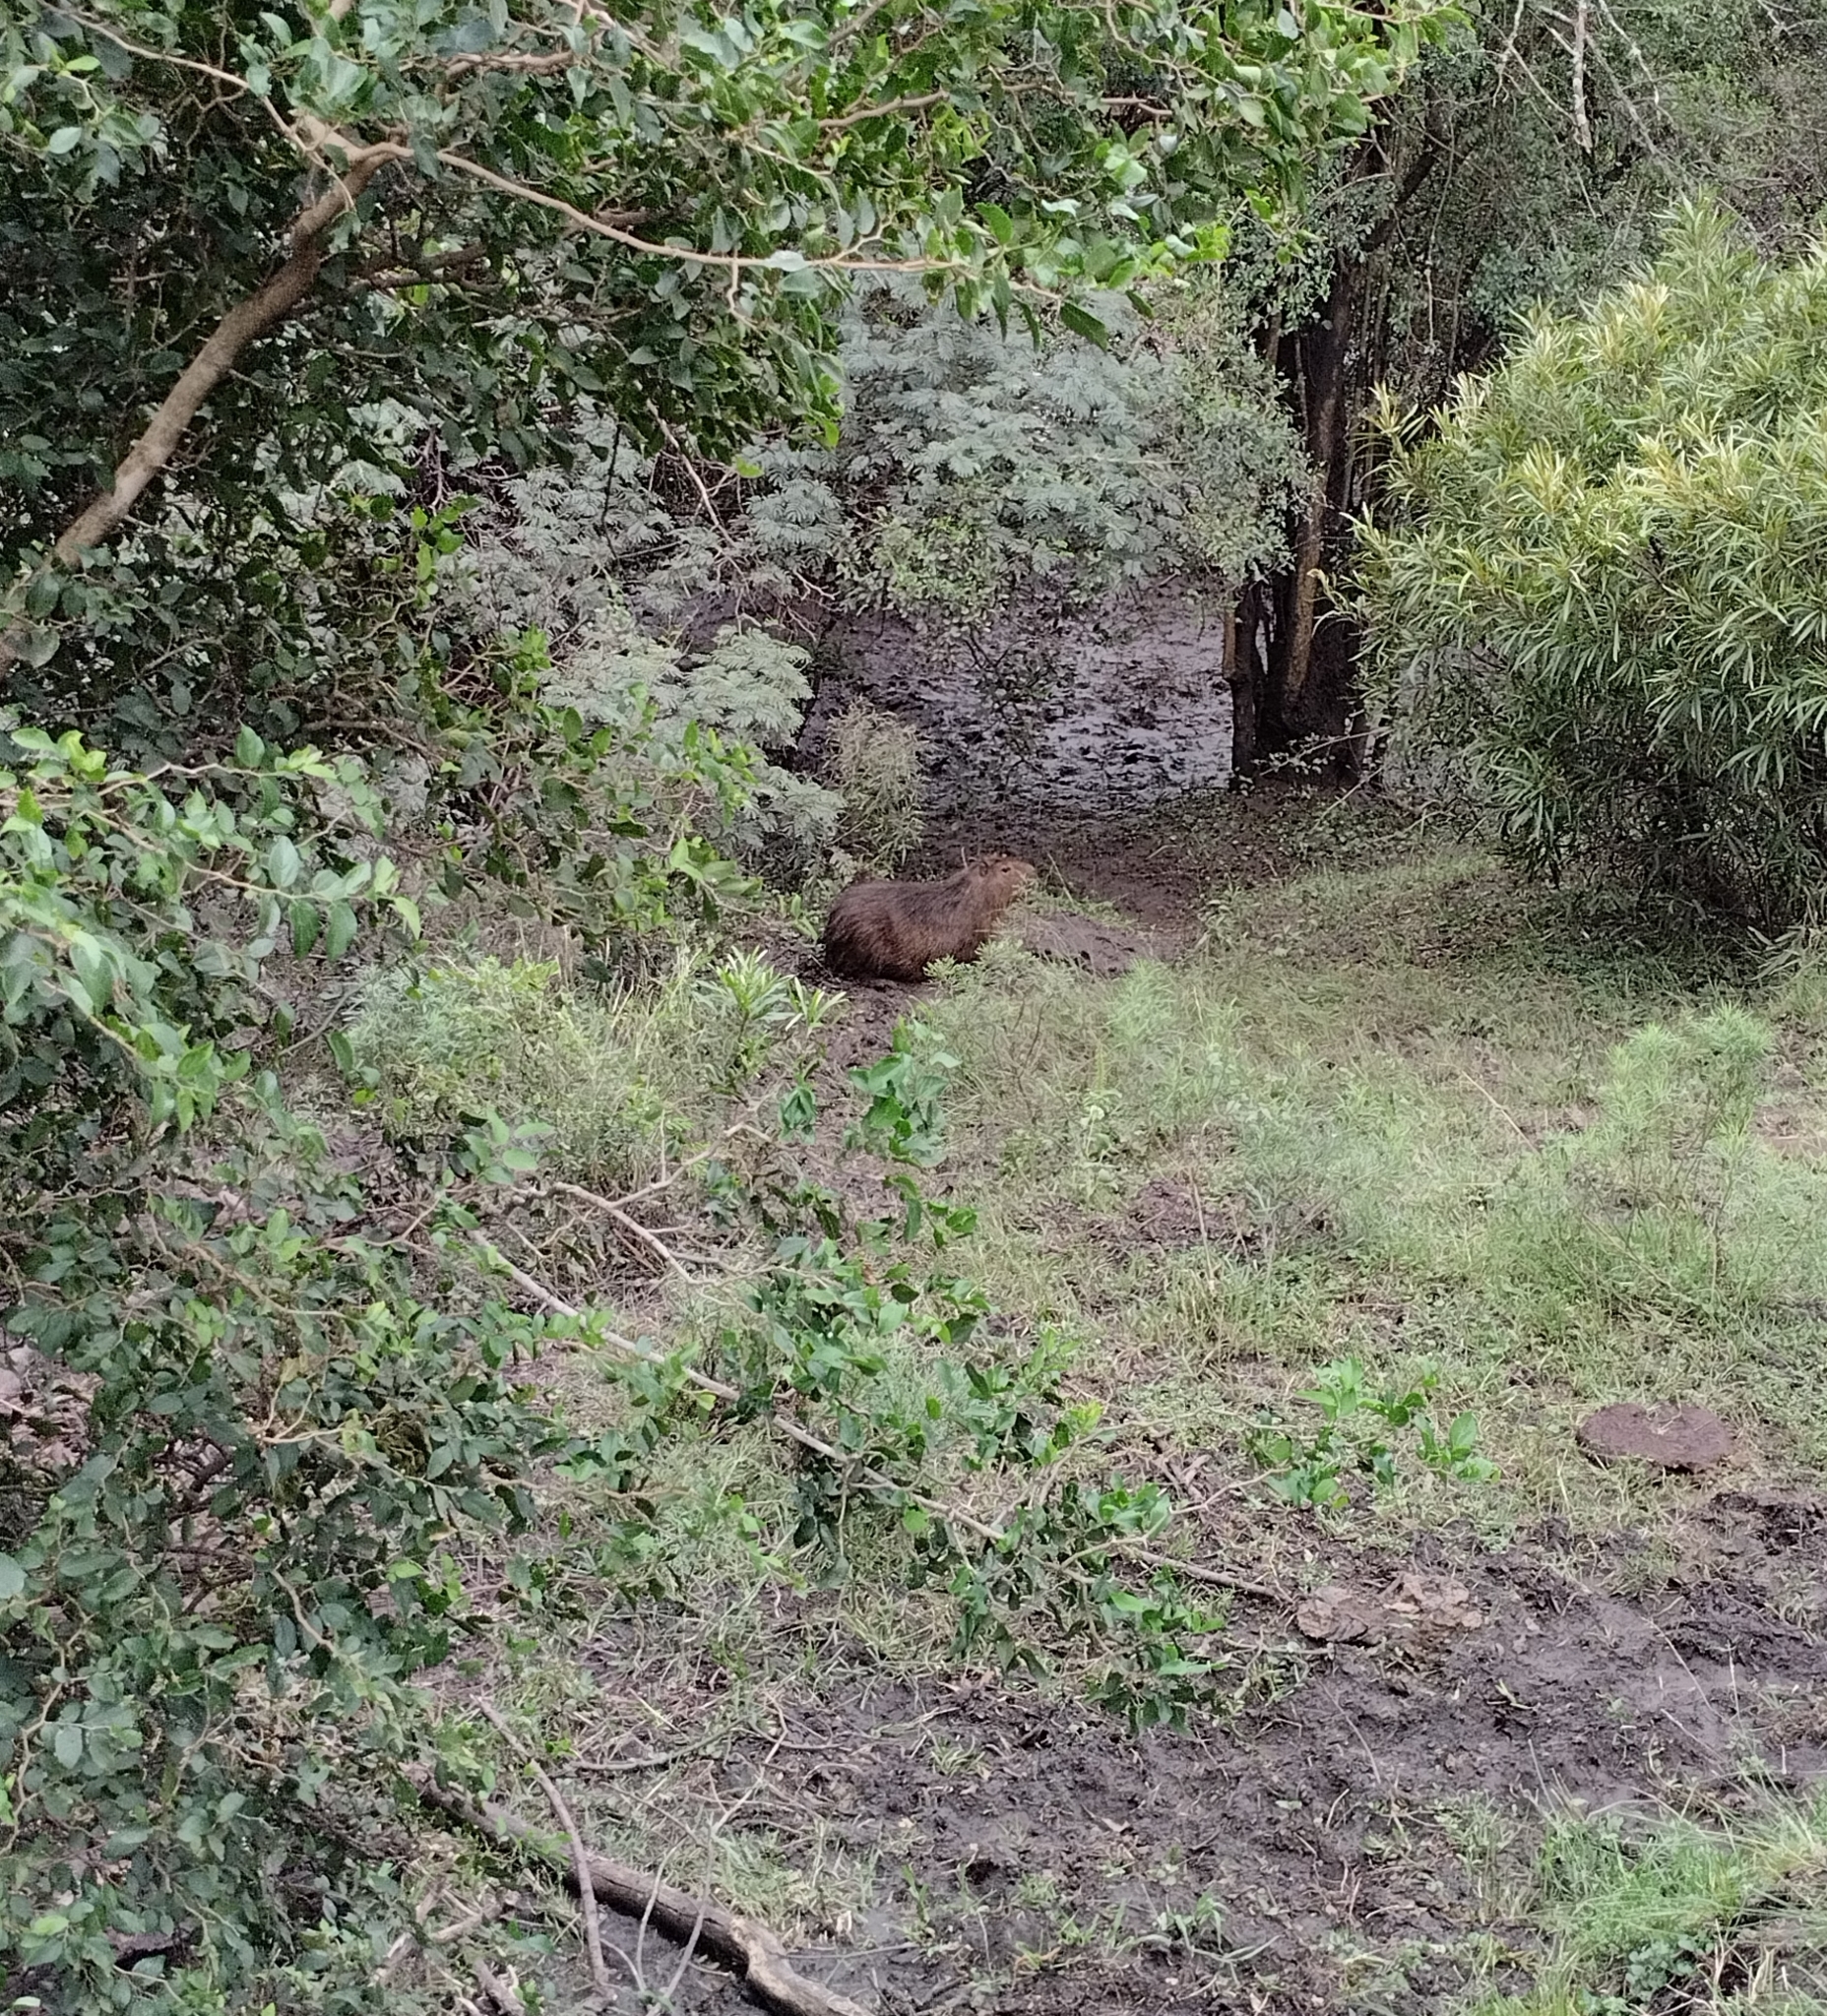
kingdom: Animalia
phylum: Chordata
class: Mammalia
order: Rodentia
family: Caviidae
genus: Hydrochoerus
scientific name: Hydrochoerus hydrochaeris
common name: Capybara
